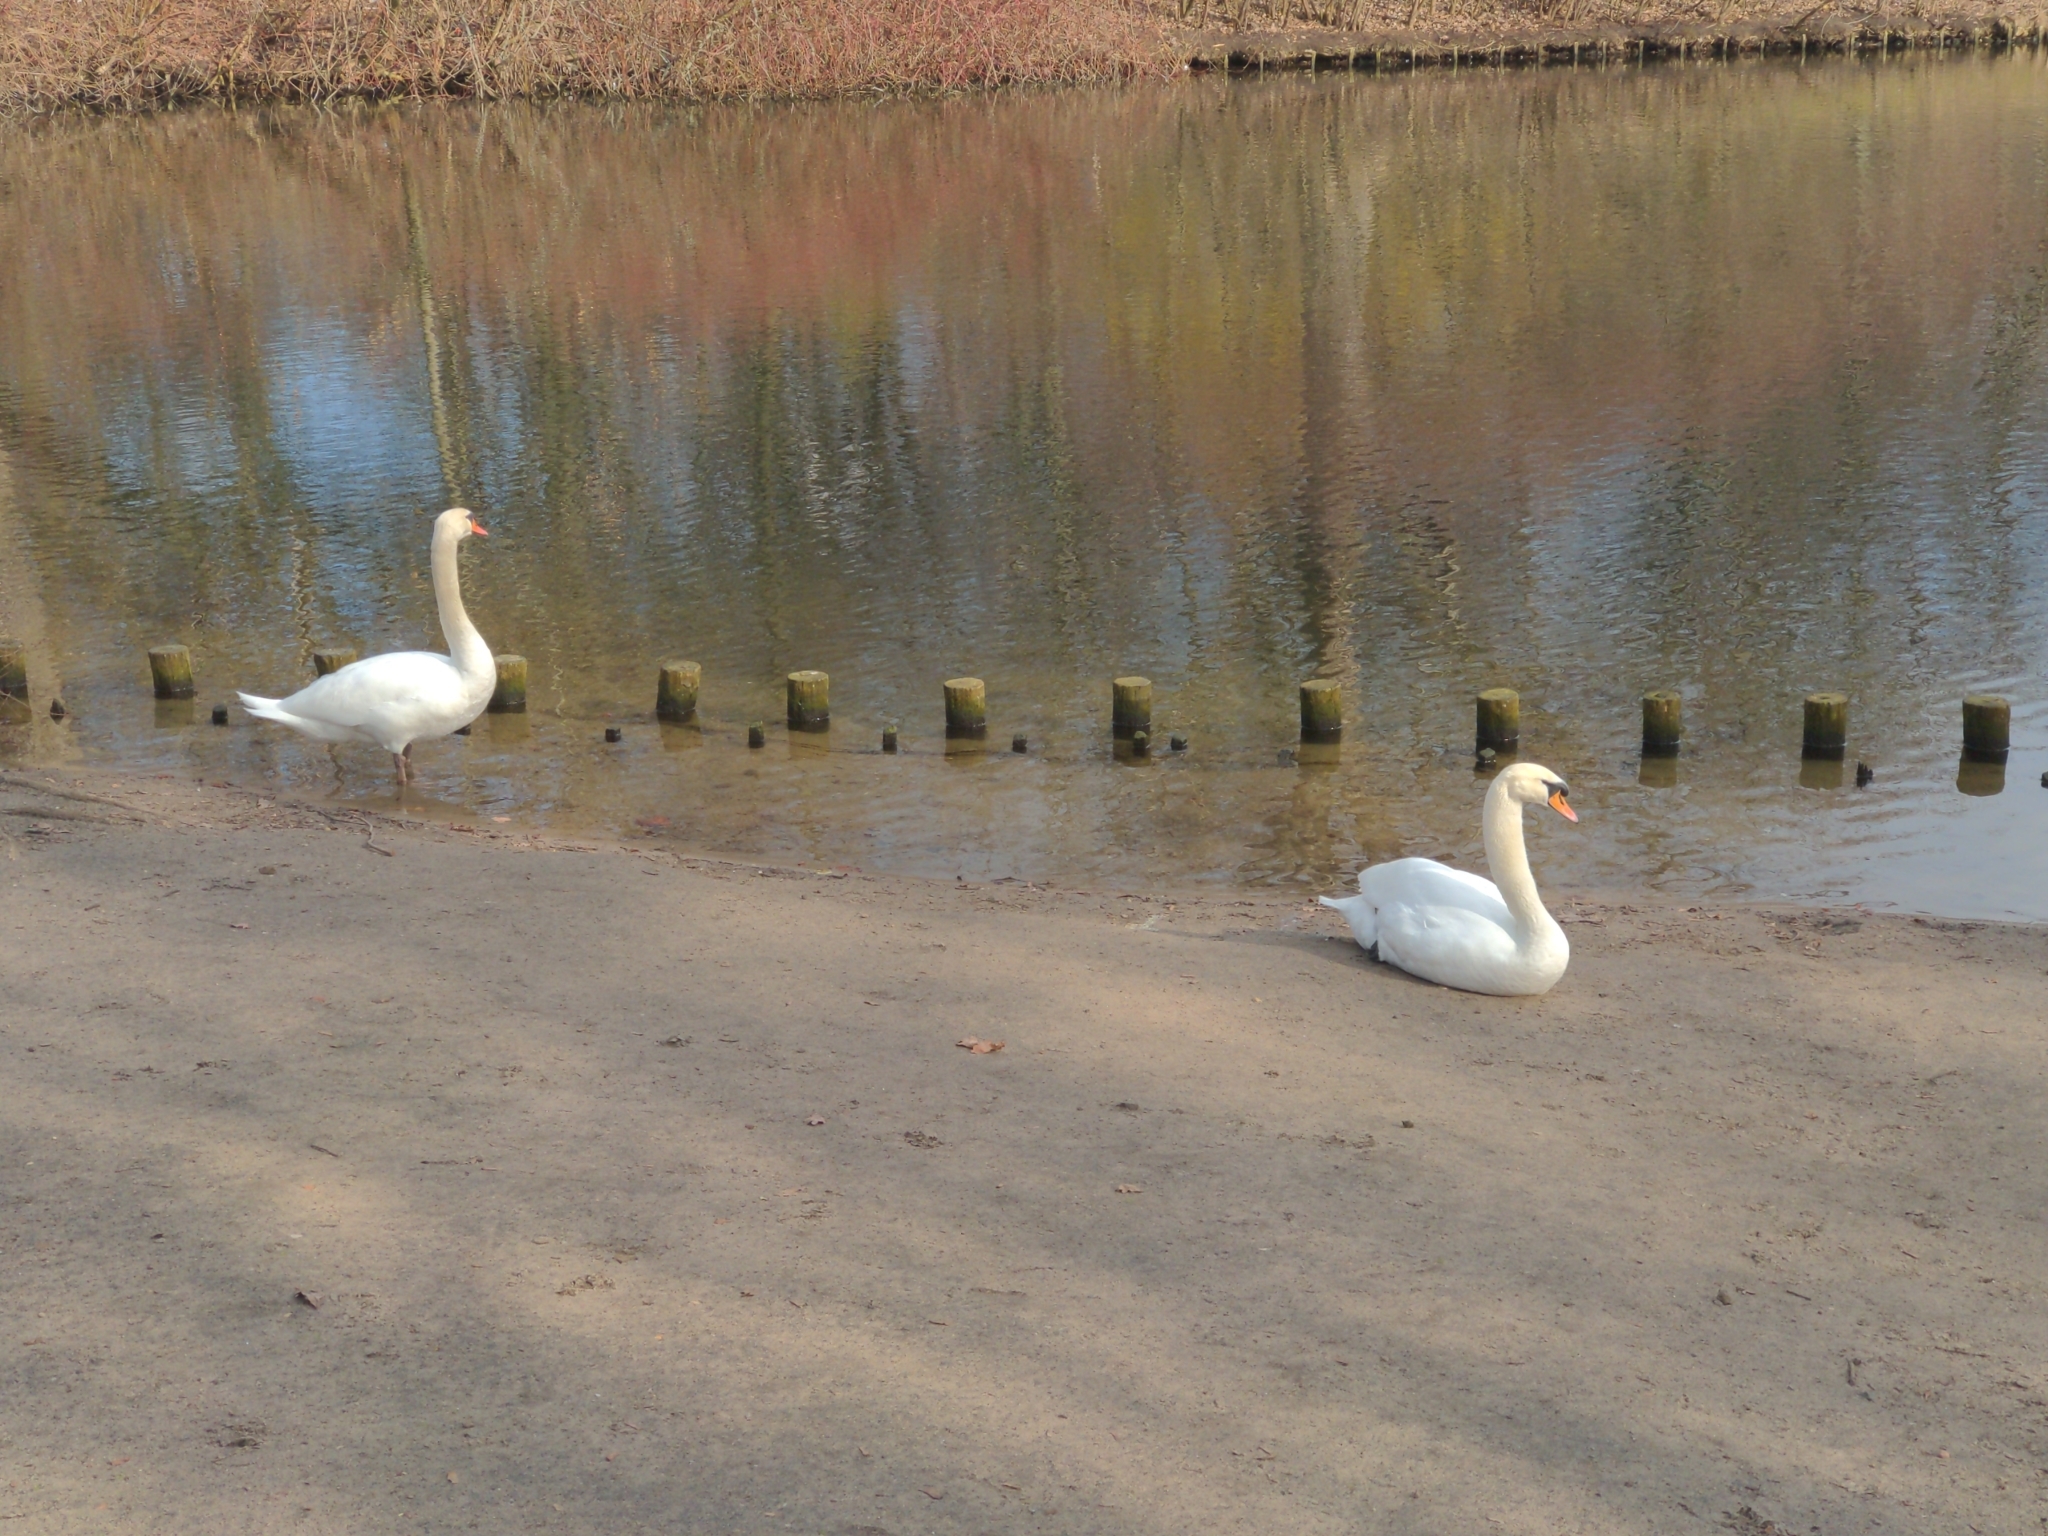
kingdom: Animalia
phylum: Chordata
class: Aves
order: Anseriformes
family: Anatidae
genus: Cygnus
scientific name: Cygnus olor
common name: Mute swan
